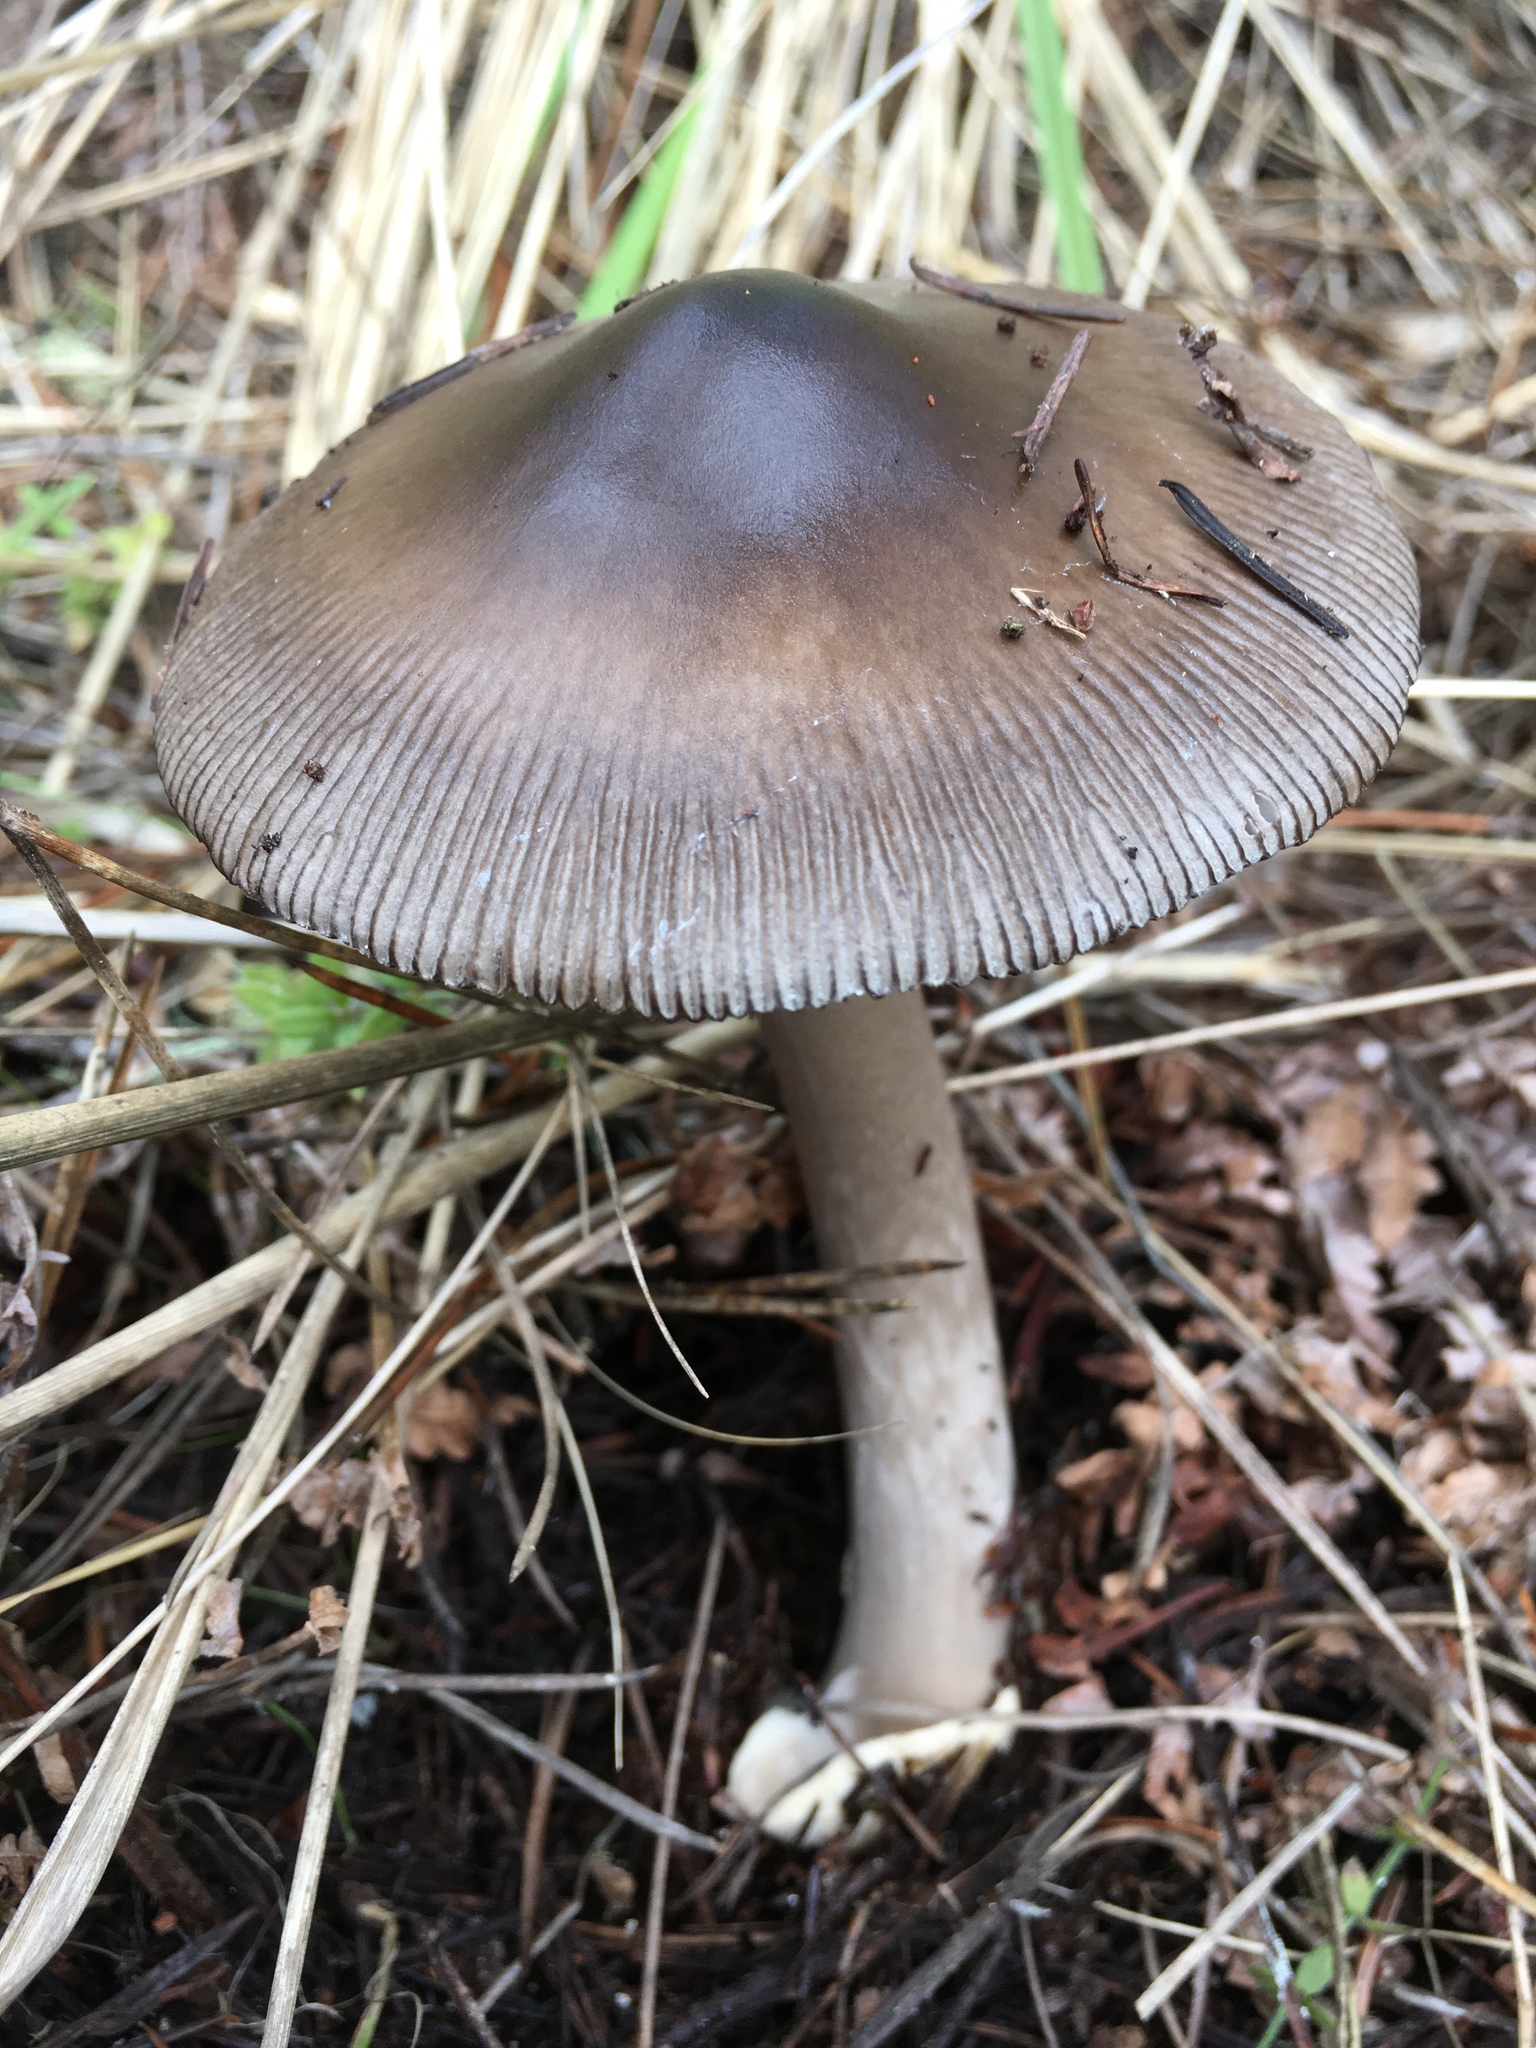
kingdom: Fungi
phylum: Basidiomycota
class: Agaricomycetes
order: Agaricales
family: Amanitaceae
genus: Amanita
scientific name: Amanita pachycolea
